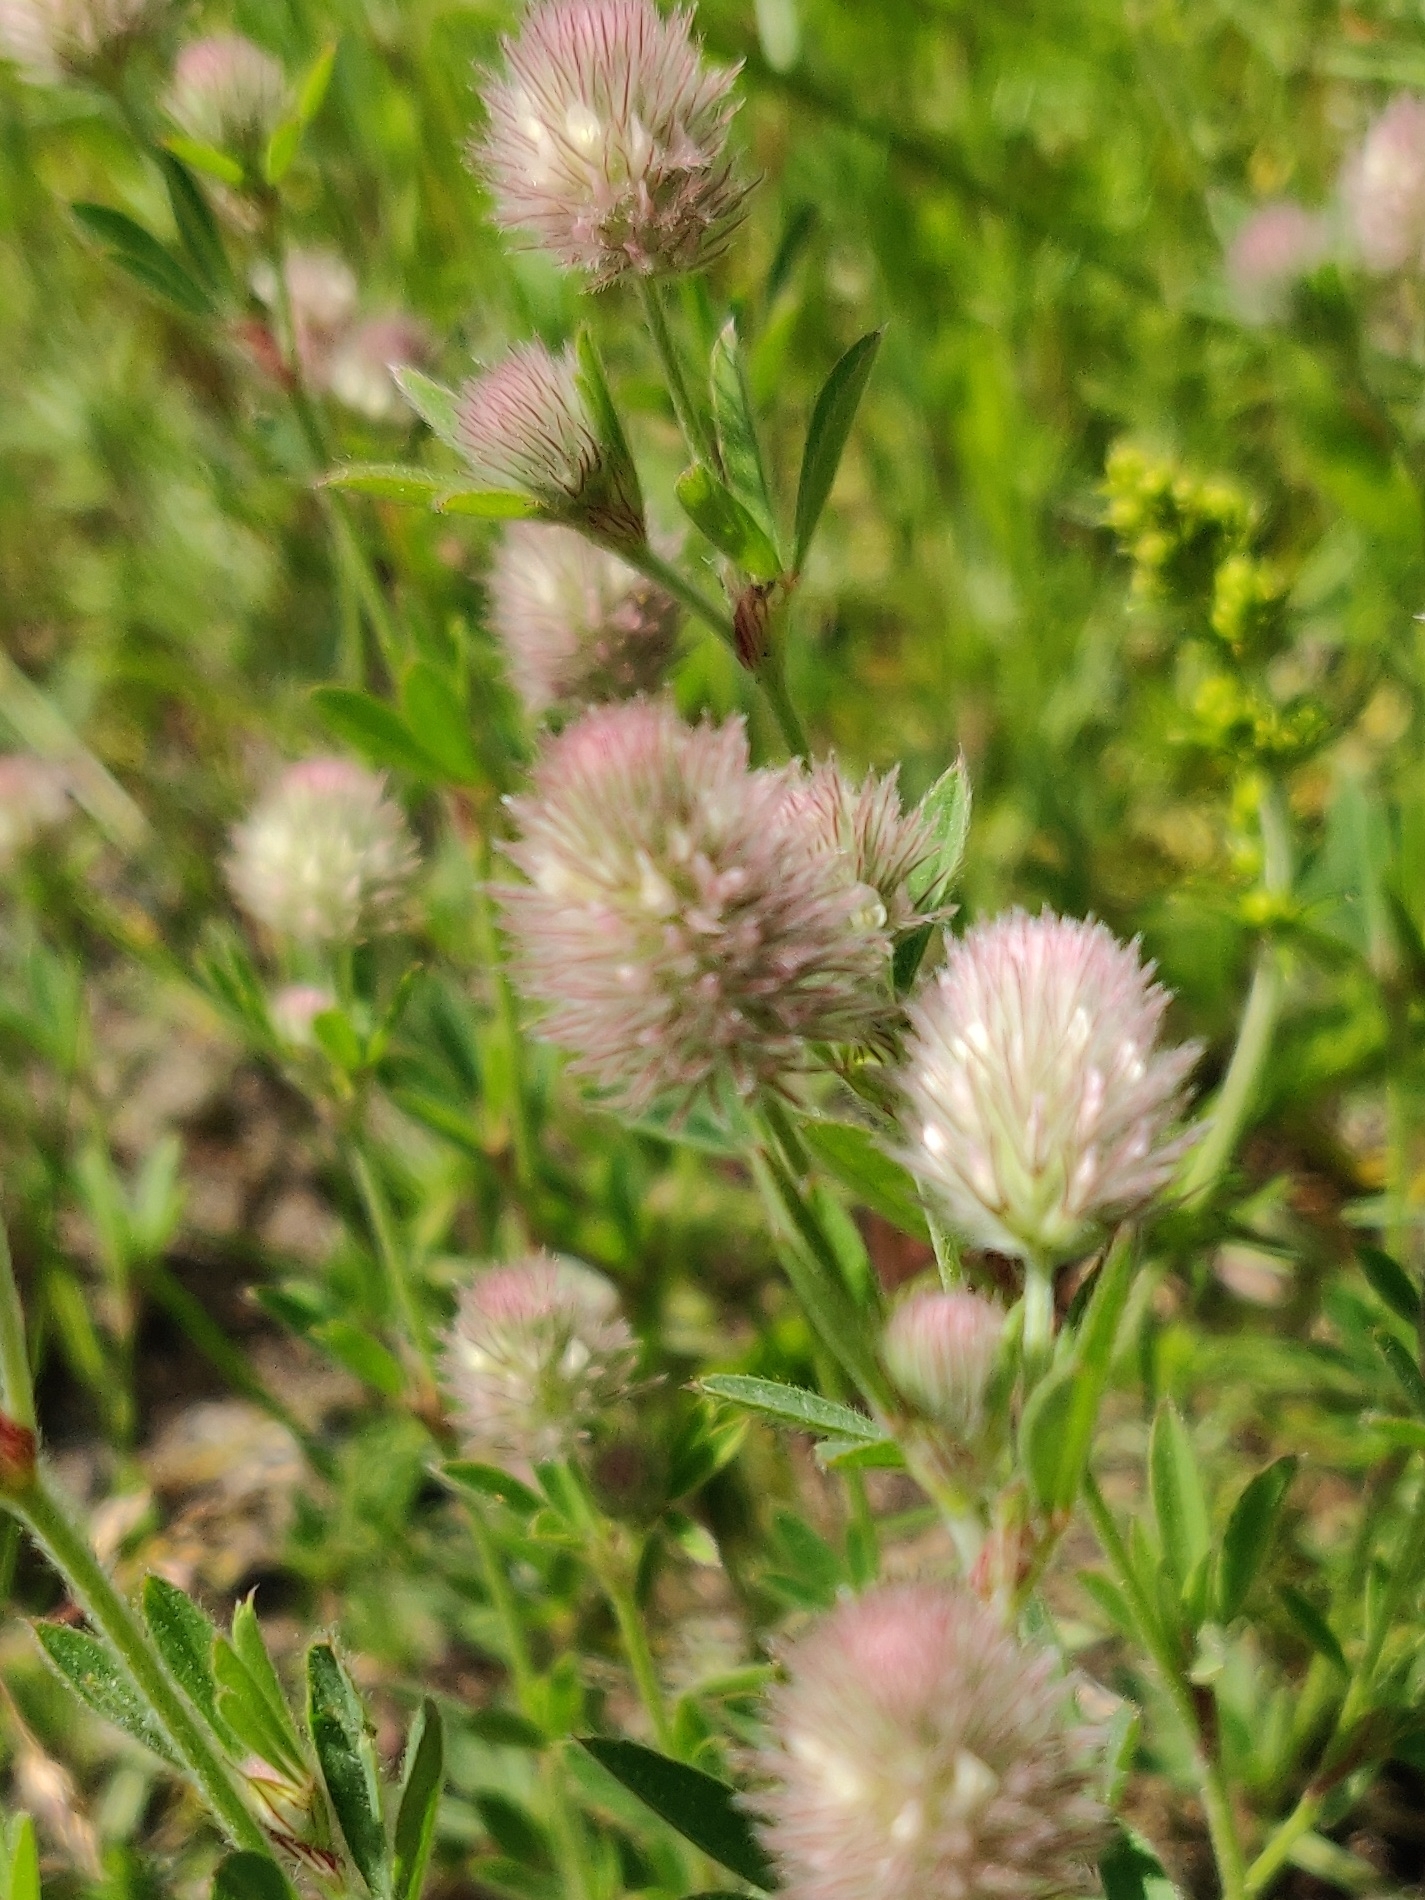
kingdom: Plantae
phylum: Tracheophyta
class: Magnoliopsida
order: Fabales
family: Fabaceae
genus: Trifolium
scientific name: Trifolium arvense
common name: Hare's-foot clover
